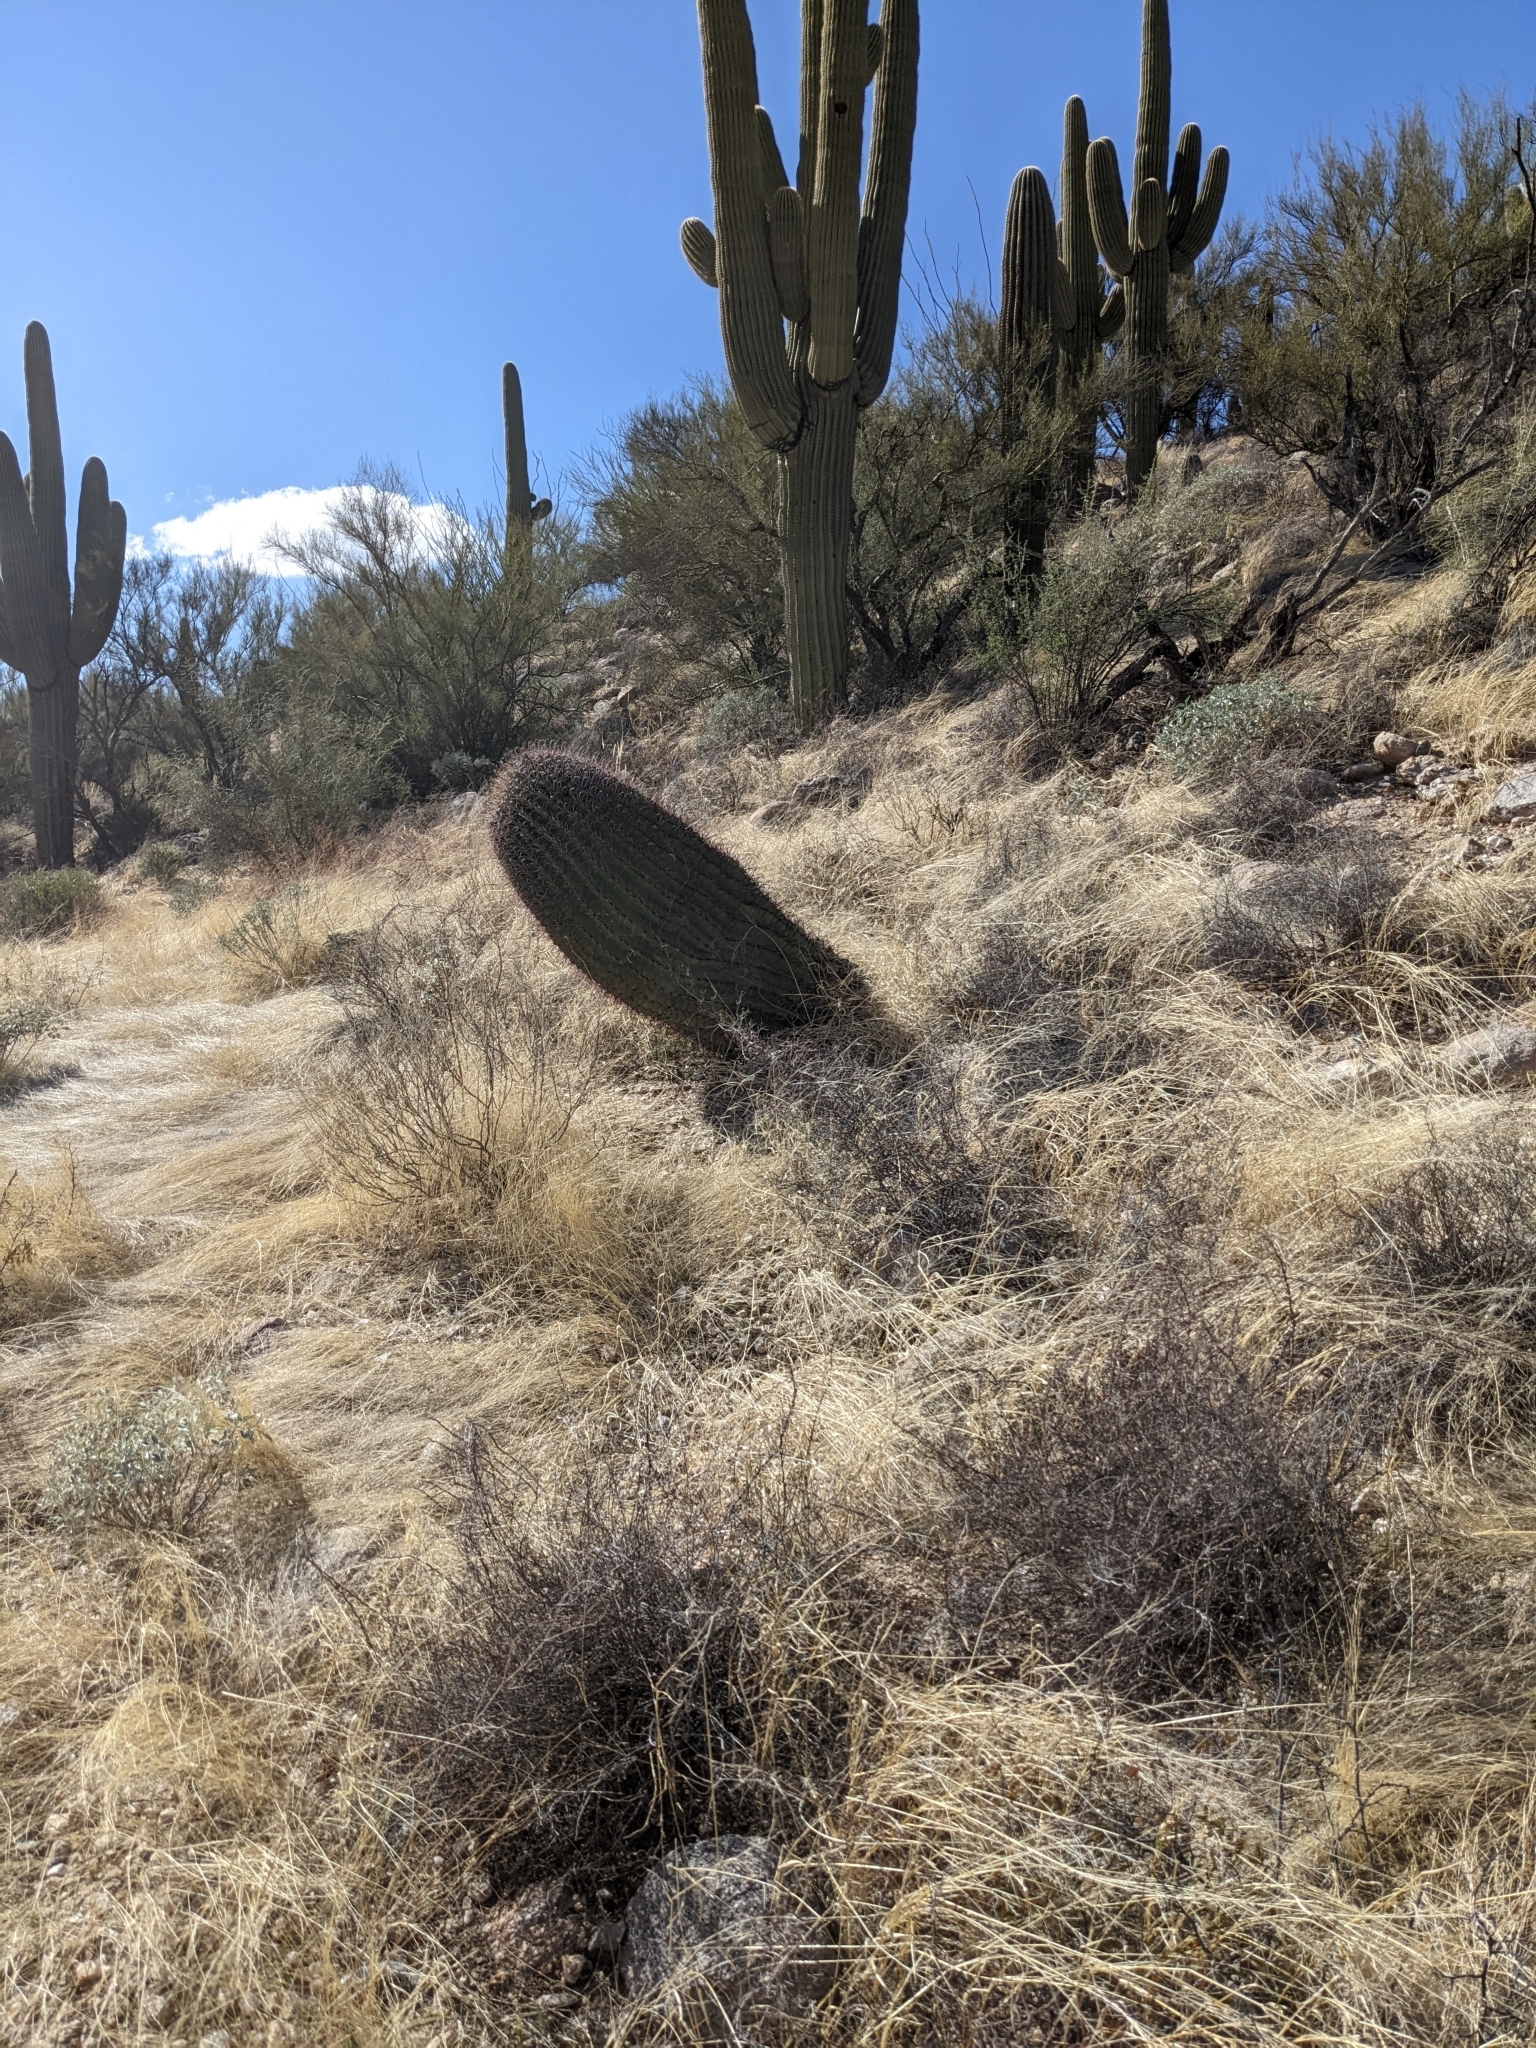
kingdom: Plantae
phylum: Tracheophyta
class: Magnoliopsida
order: Caryophyllales
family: Cactaceae
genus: Ferocactus
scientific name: Ferocactus wislizeni
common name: Candy barrel cactus
